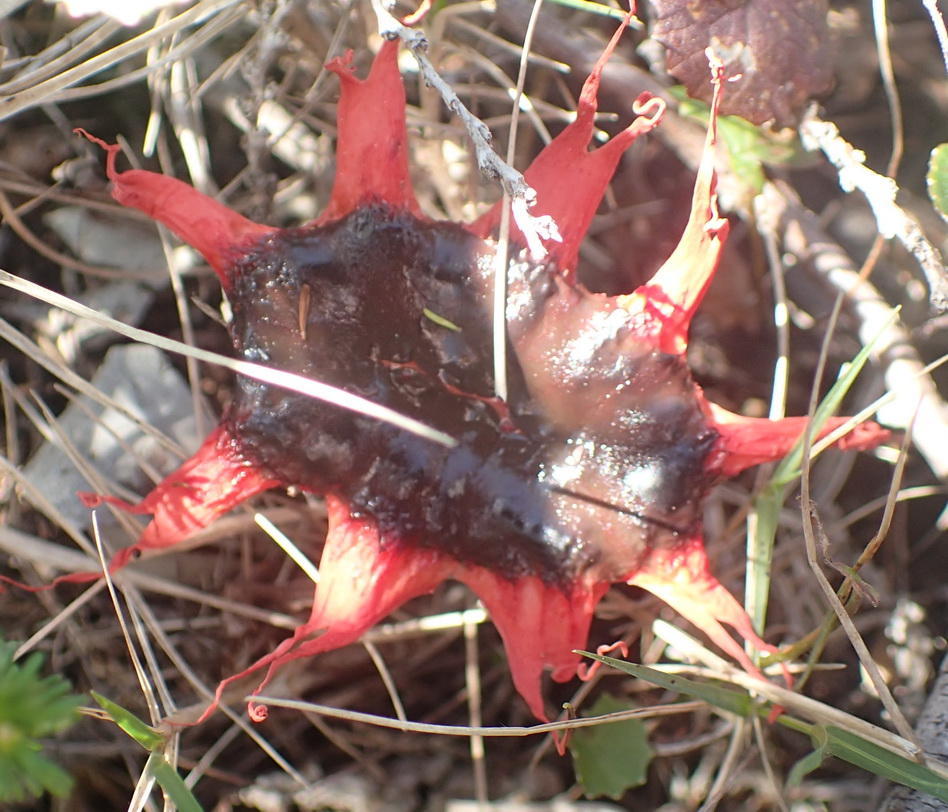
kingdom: Fungi
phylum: Basidiomycota
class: Agaricomycetes
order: Phallales
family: Phallaceae
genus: Aseroe
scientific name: Aseroe rubra
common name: Starfish fungus
